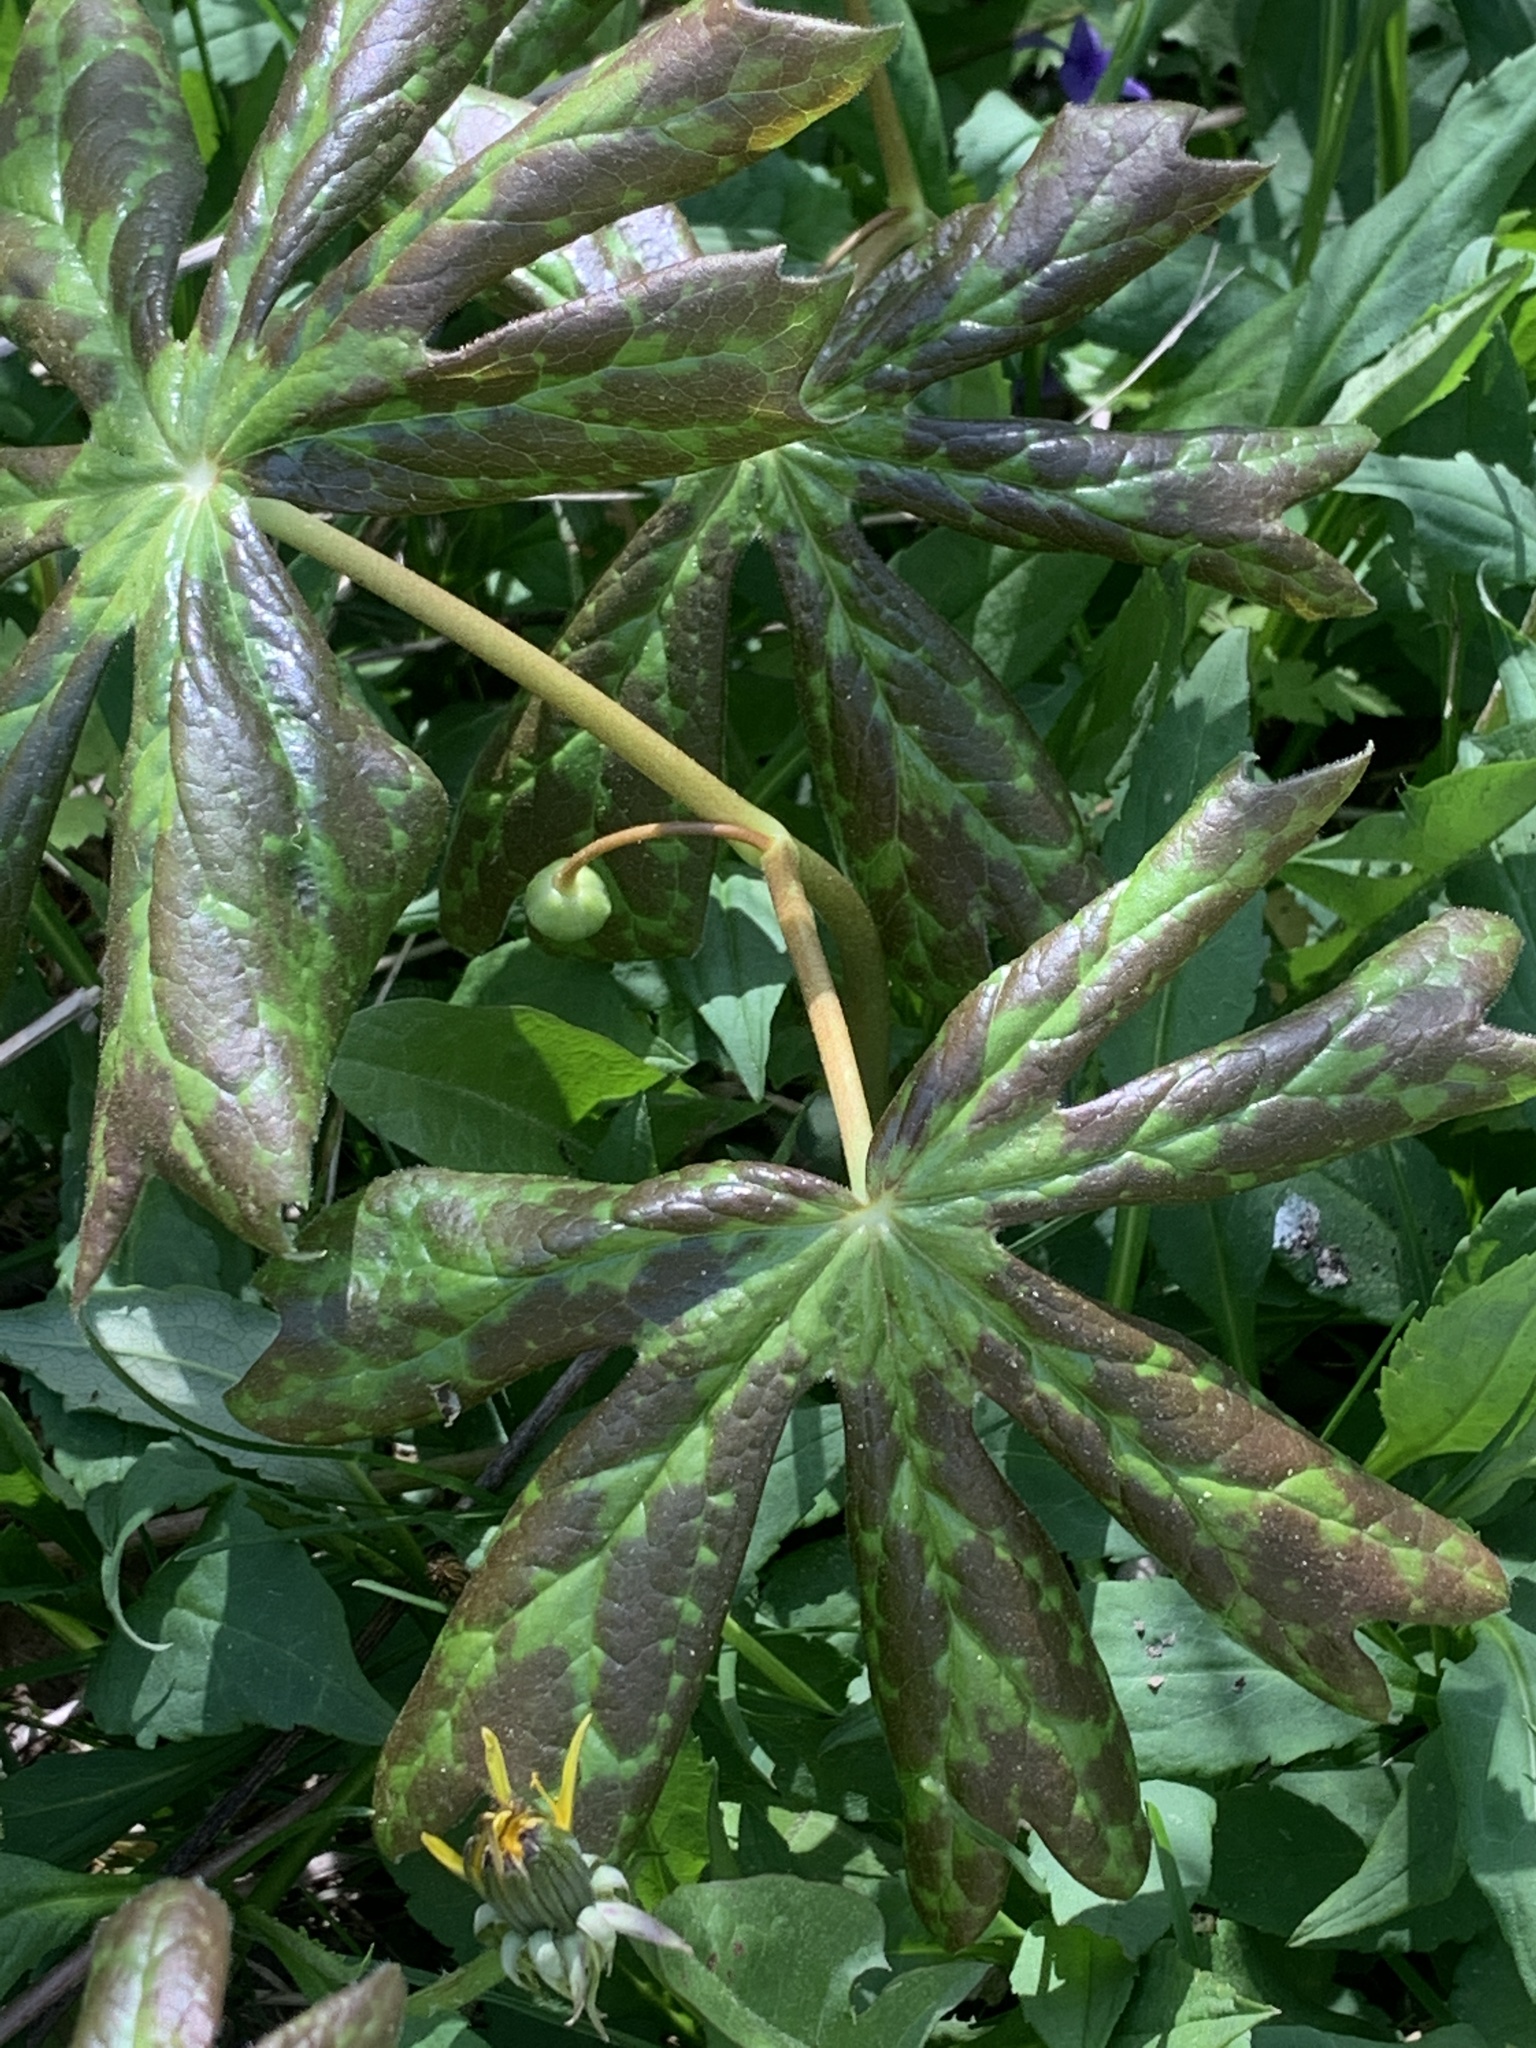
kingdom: Plantae
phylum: Tracheophyta
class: Magnoliopsida
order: Ranunculales
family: Berberidaceae
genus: Podophyllum
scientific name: Podophyllum peltatum
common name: Wild mandrake
